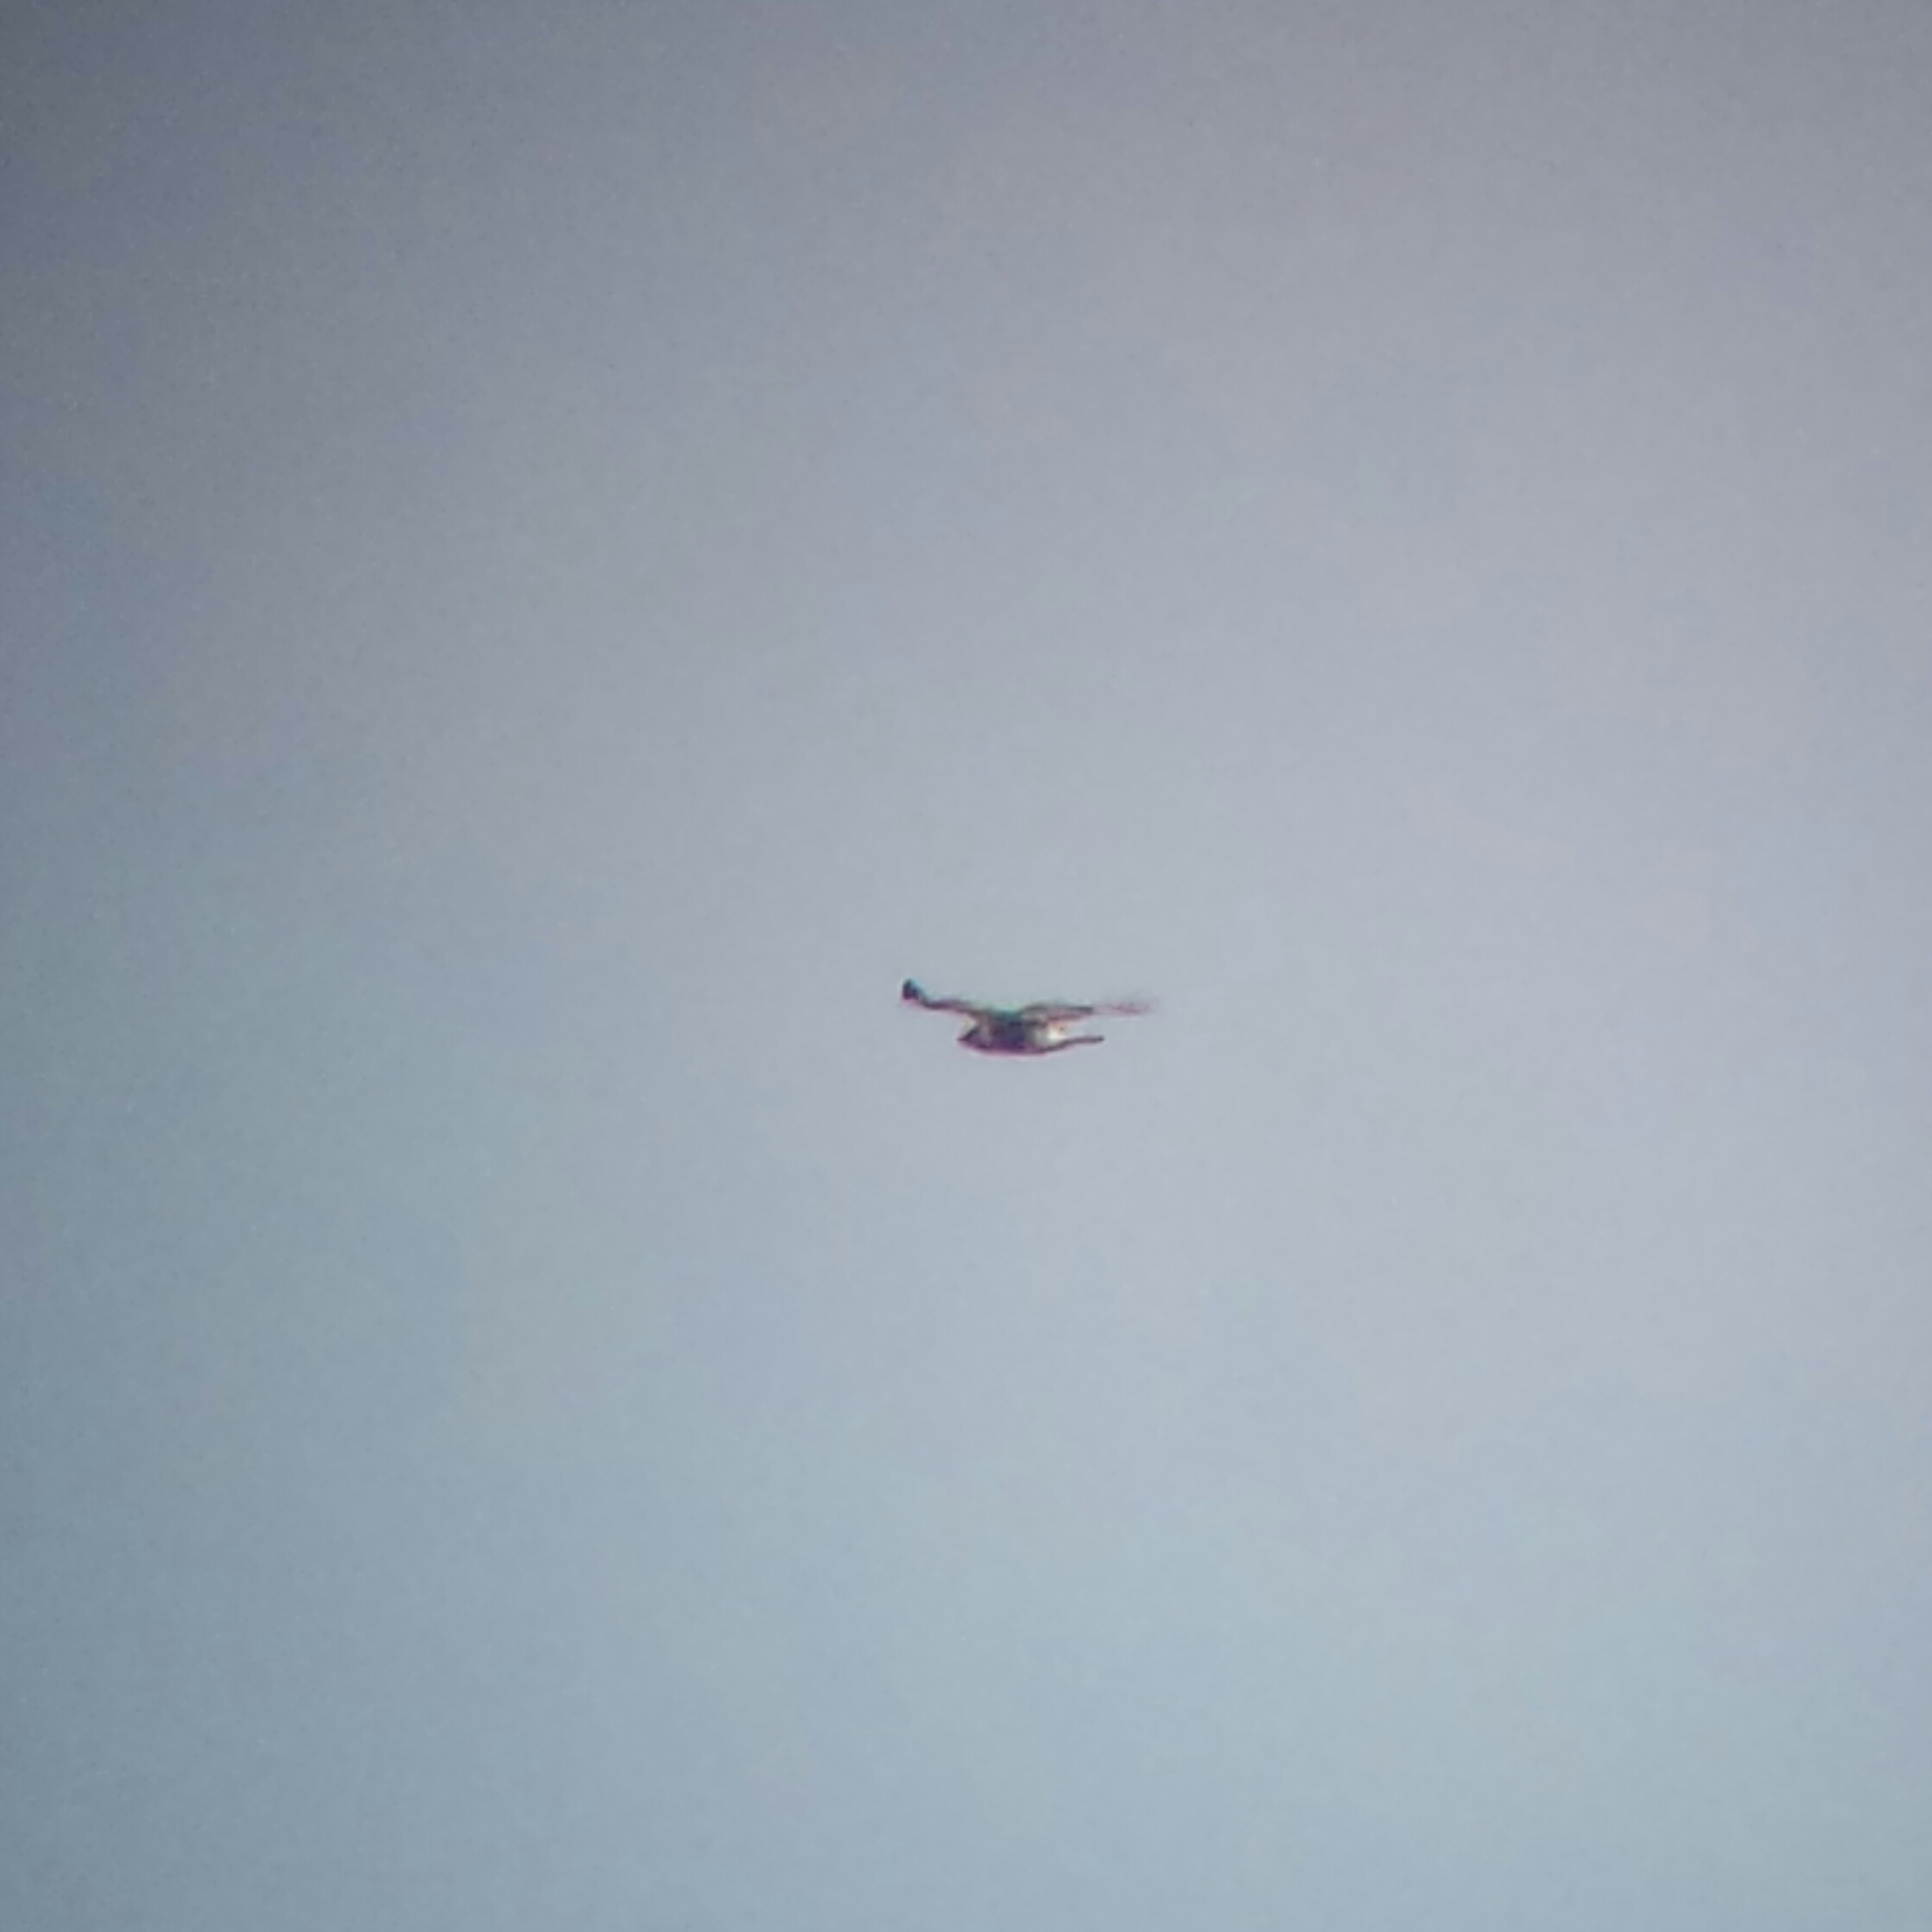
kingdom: Animalia
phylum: Chordata
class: Aves
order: Accipitriformes
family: Accipitridae
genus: Buteo
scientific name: Buteo lagopus
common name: Rough-legged buzzard
